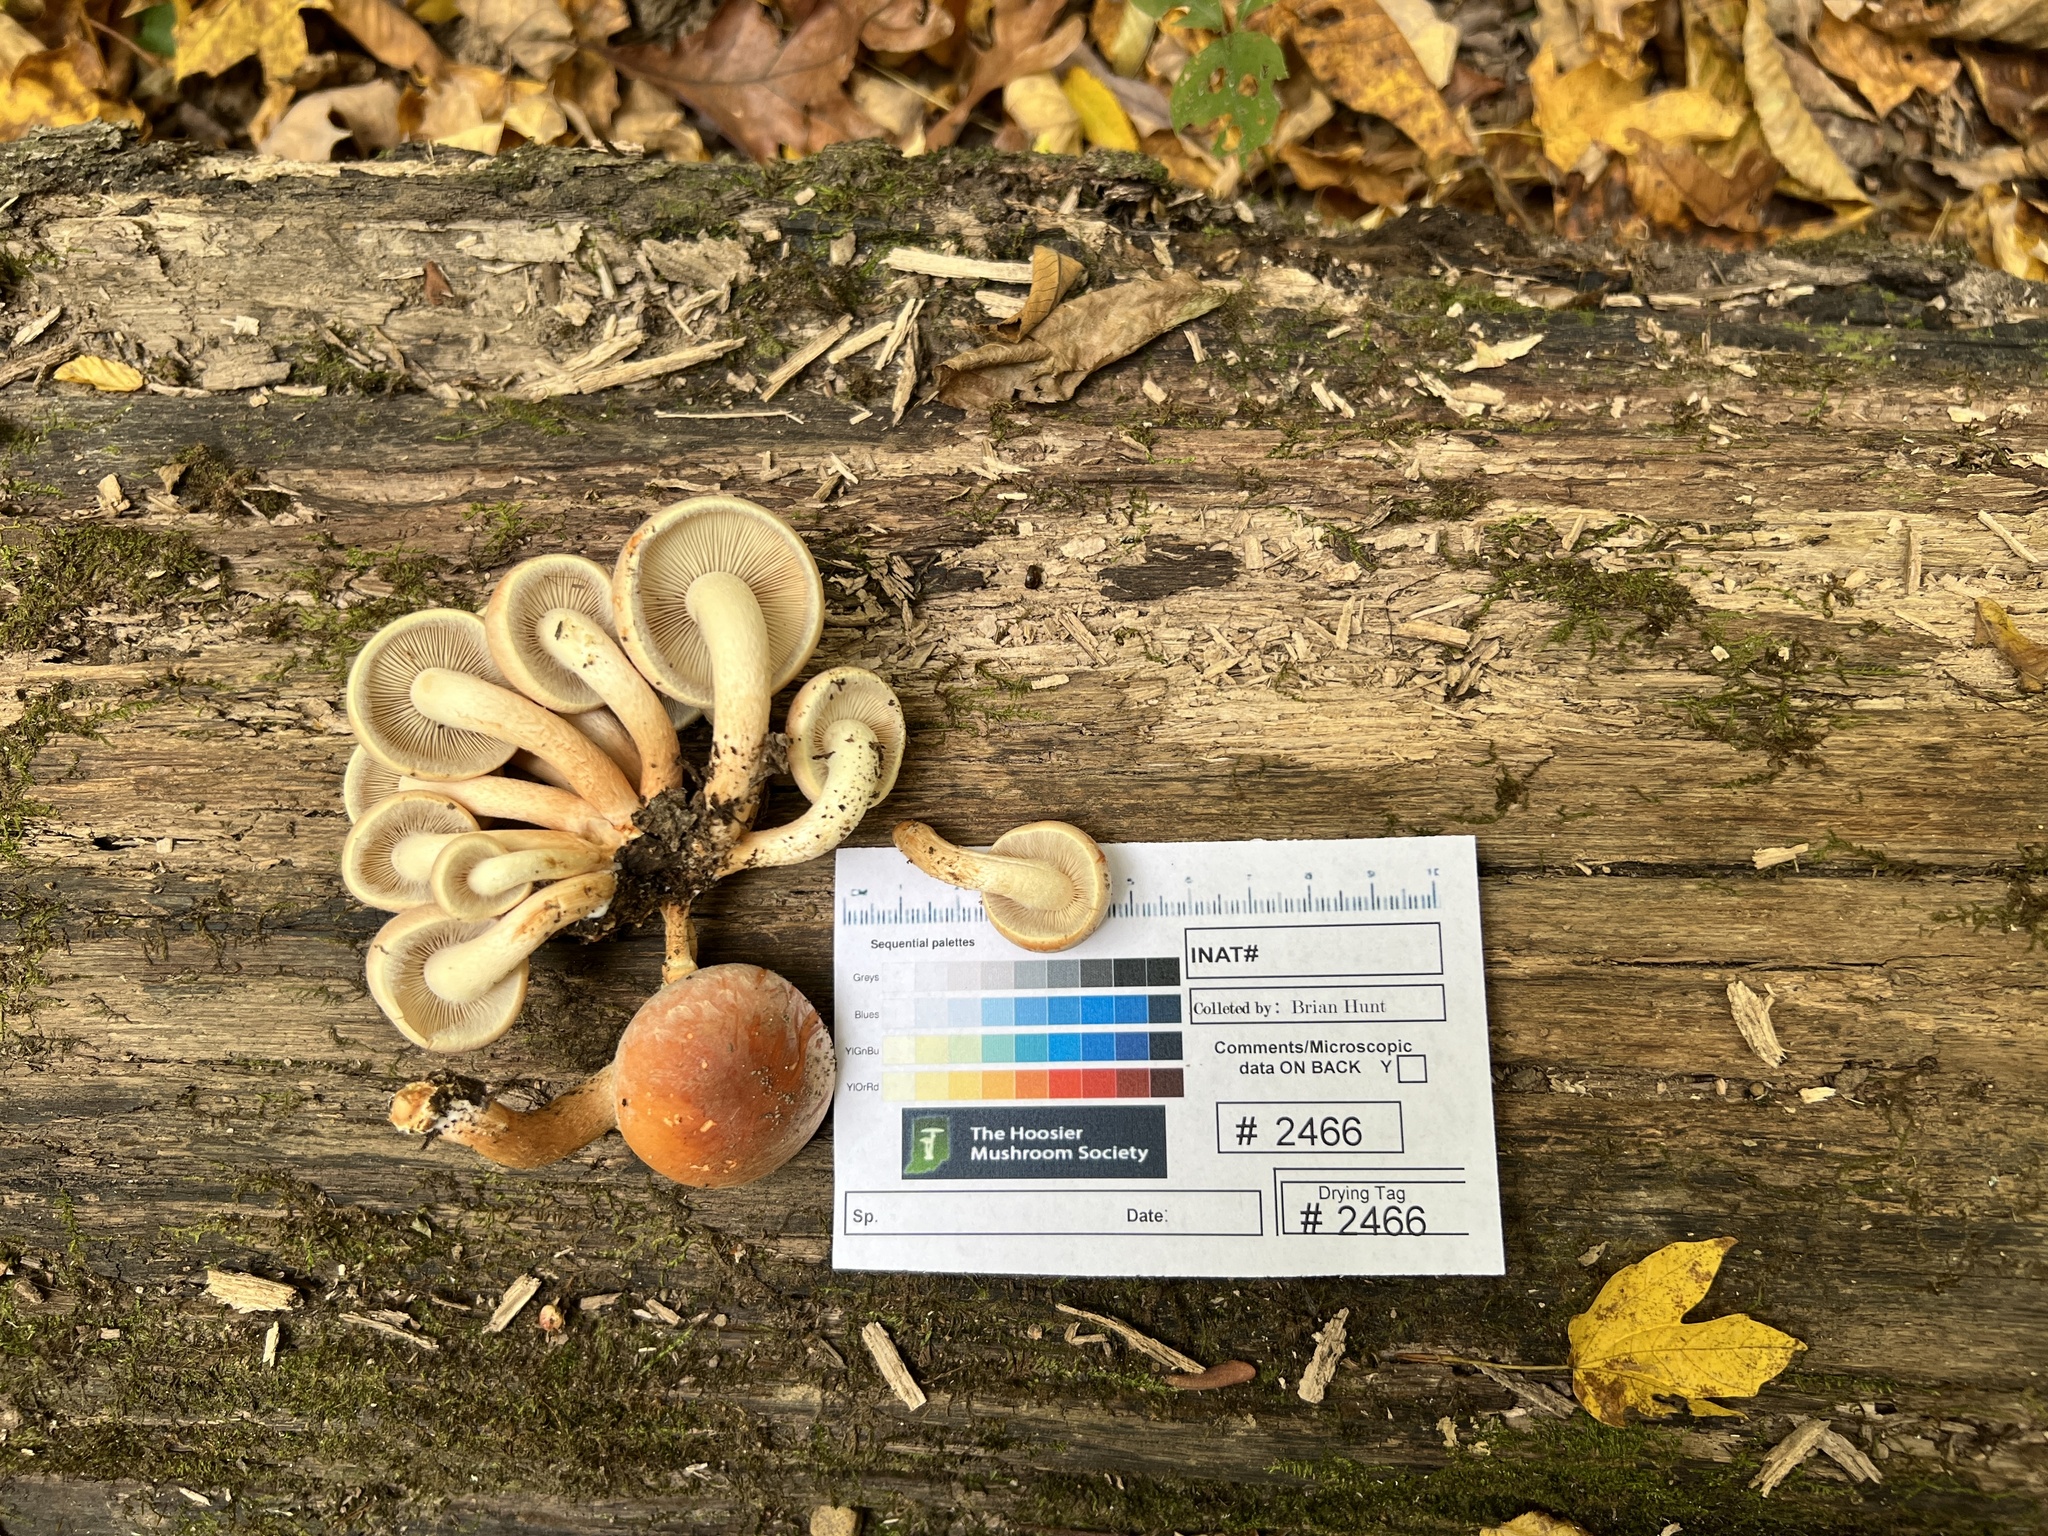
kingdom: Fungi
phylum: Basidiomycota
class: Agaricomycetes
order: Agaricales
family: Strophariaceae
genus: Hypholoma
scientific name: Hypholoma lateritium
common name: Brick caps
